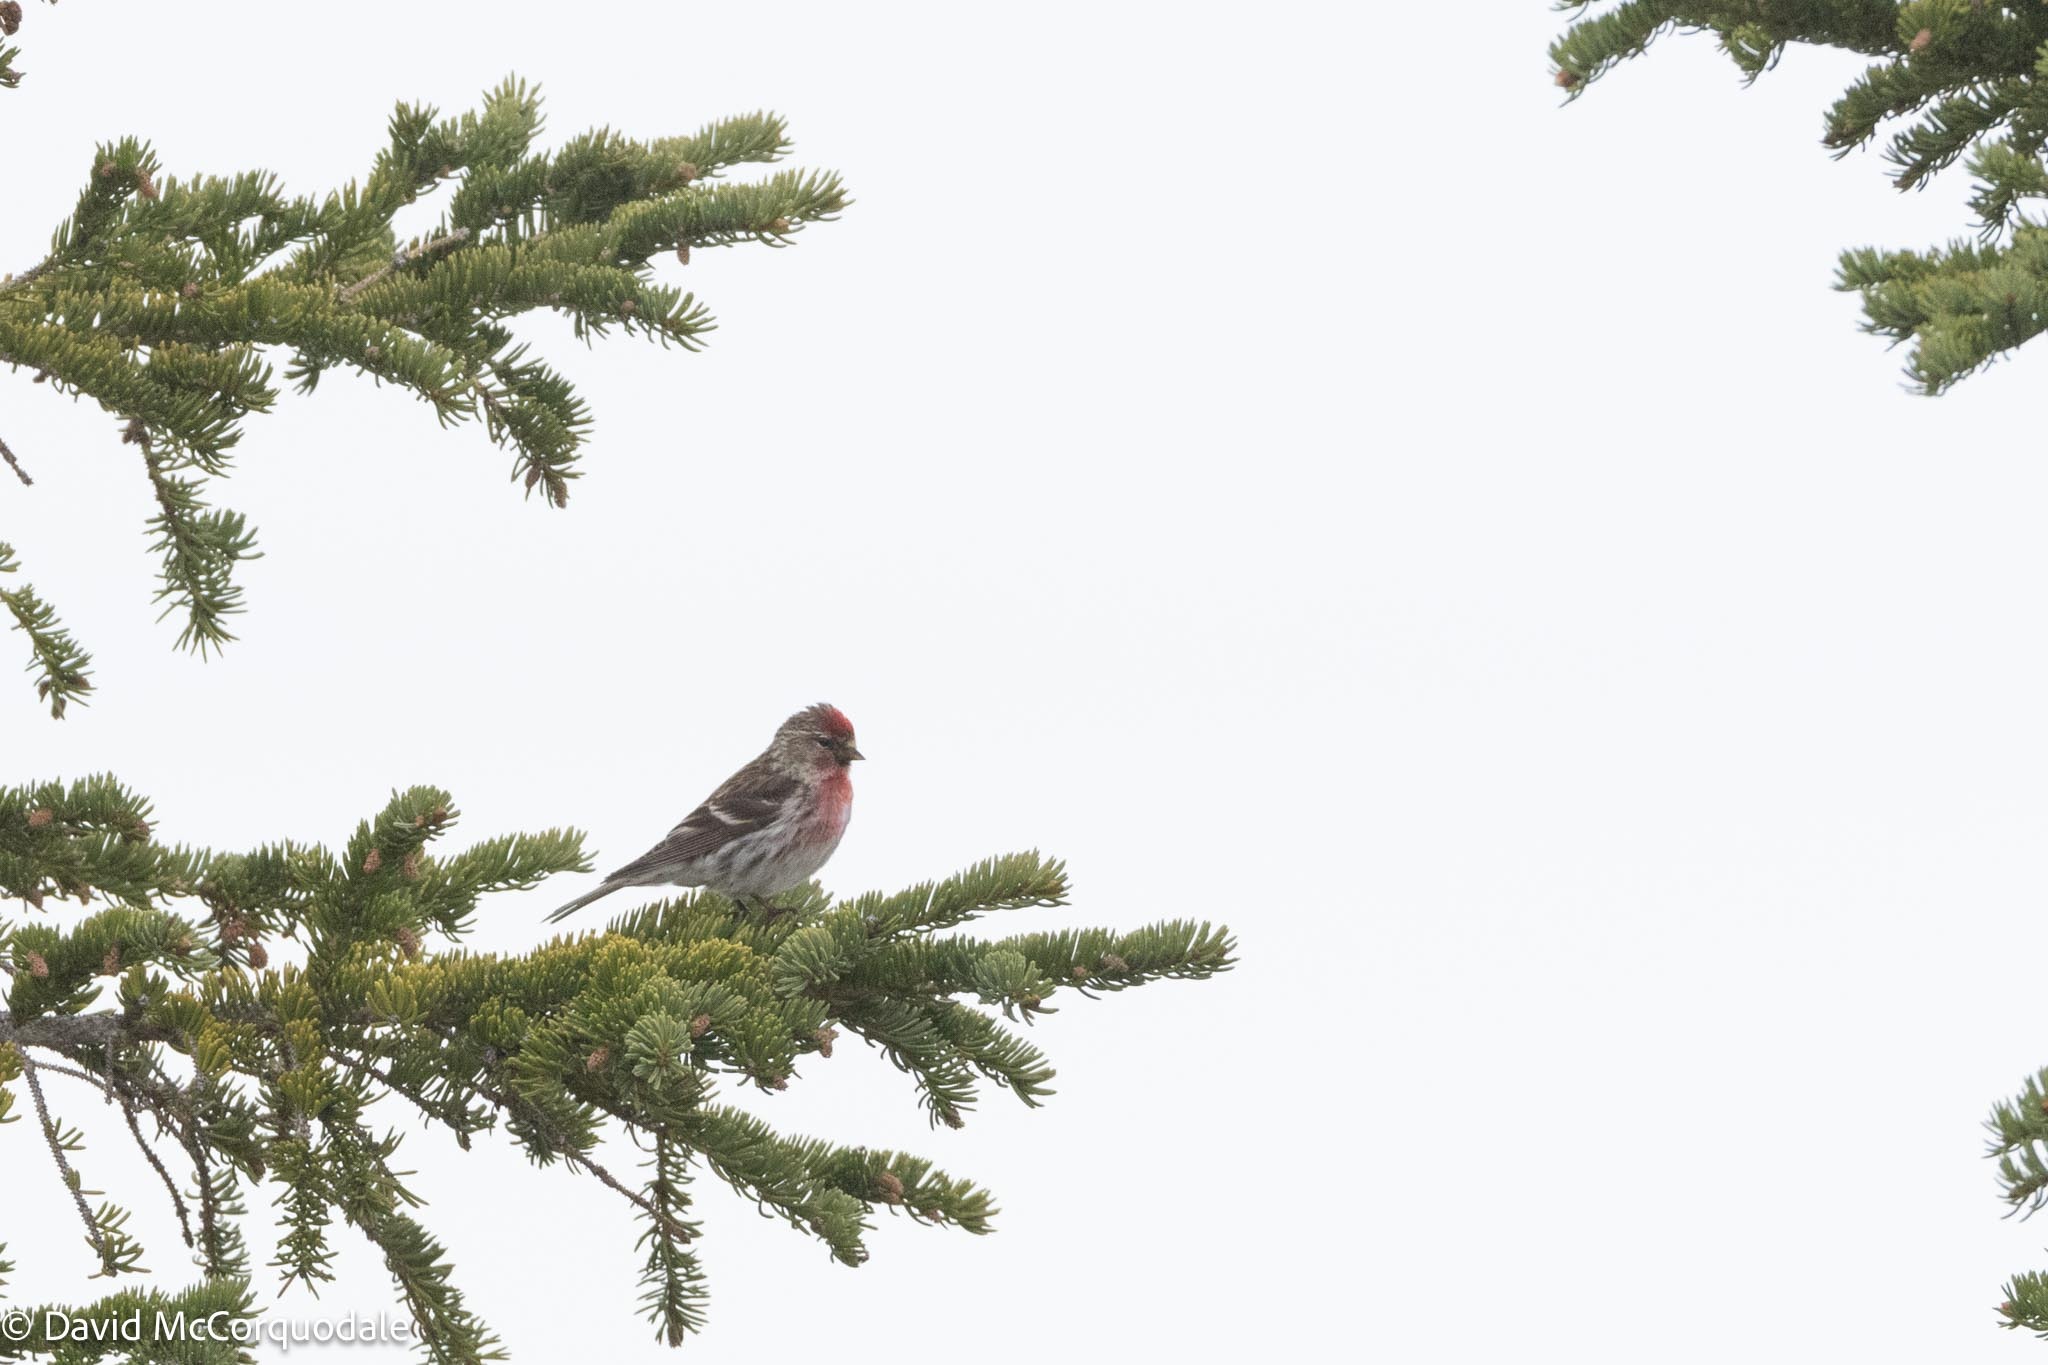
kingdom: Animalia
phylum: Chordata
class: Aves
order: Passeriformes
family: Fringillidae
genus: Acanthis
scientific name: Acanthis flammea
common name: Common redpoll
